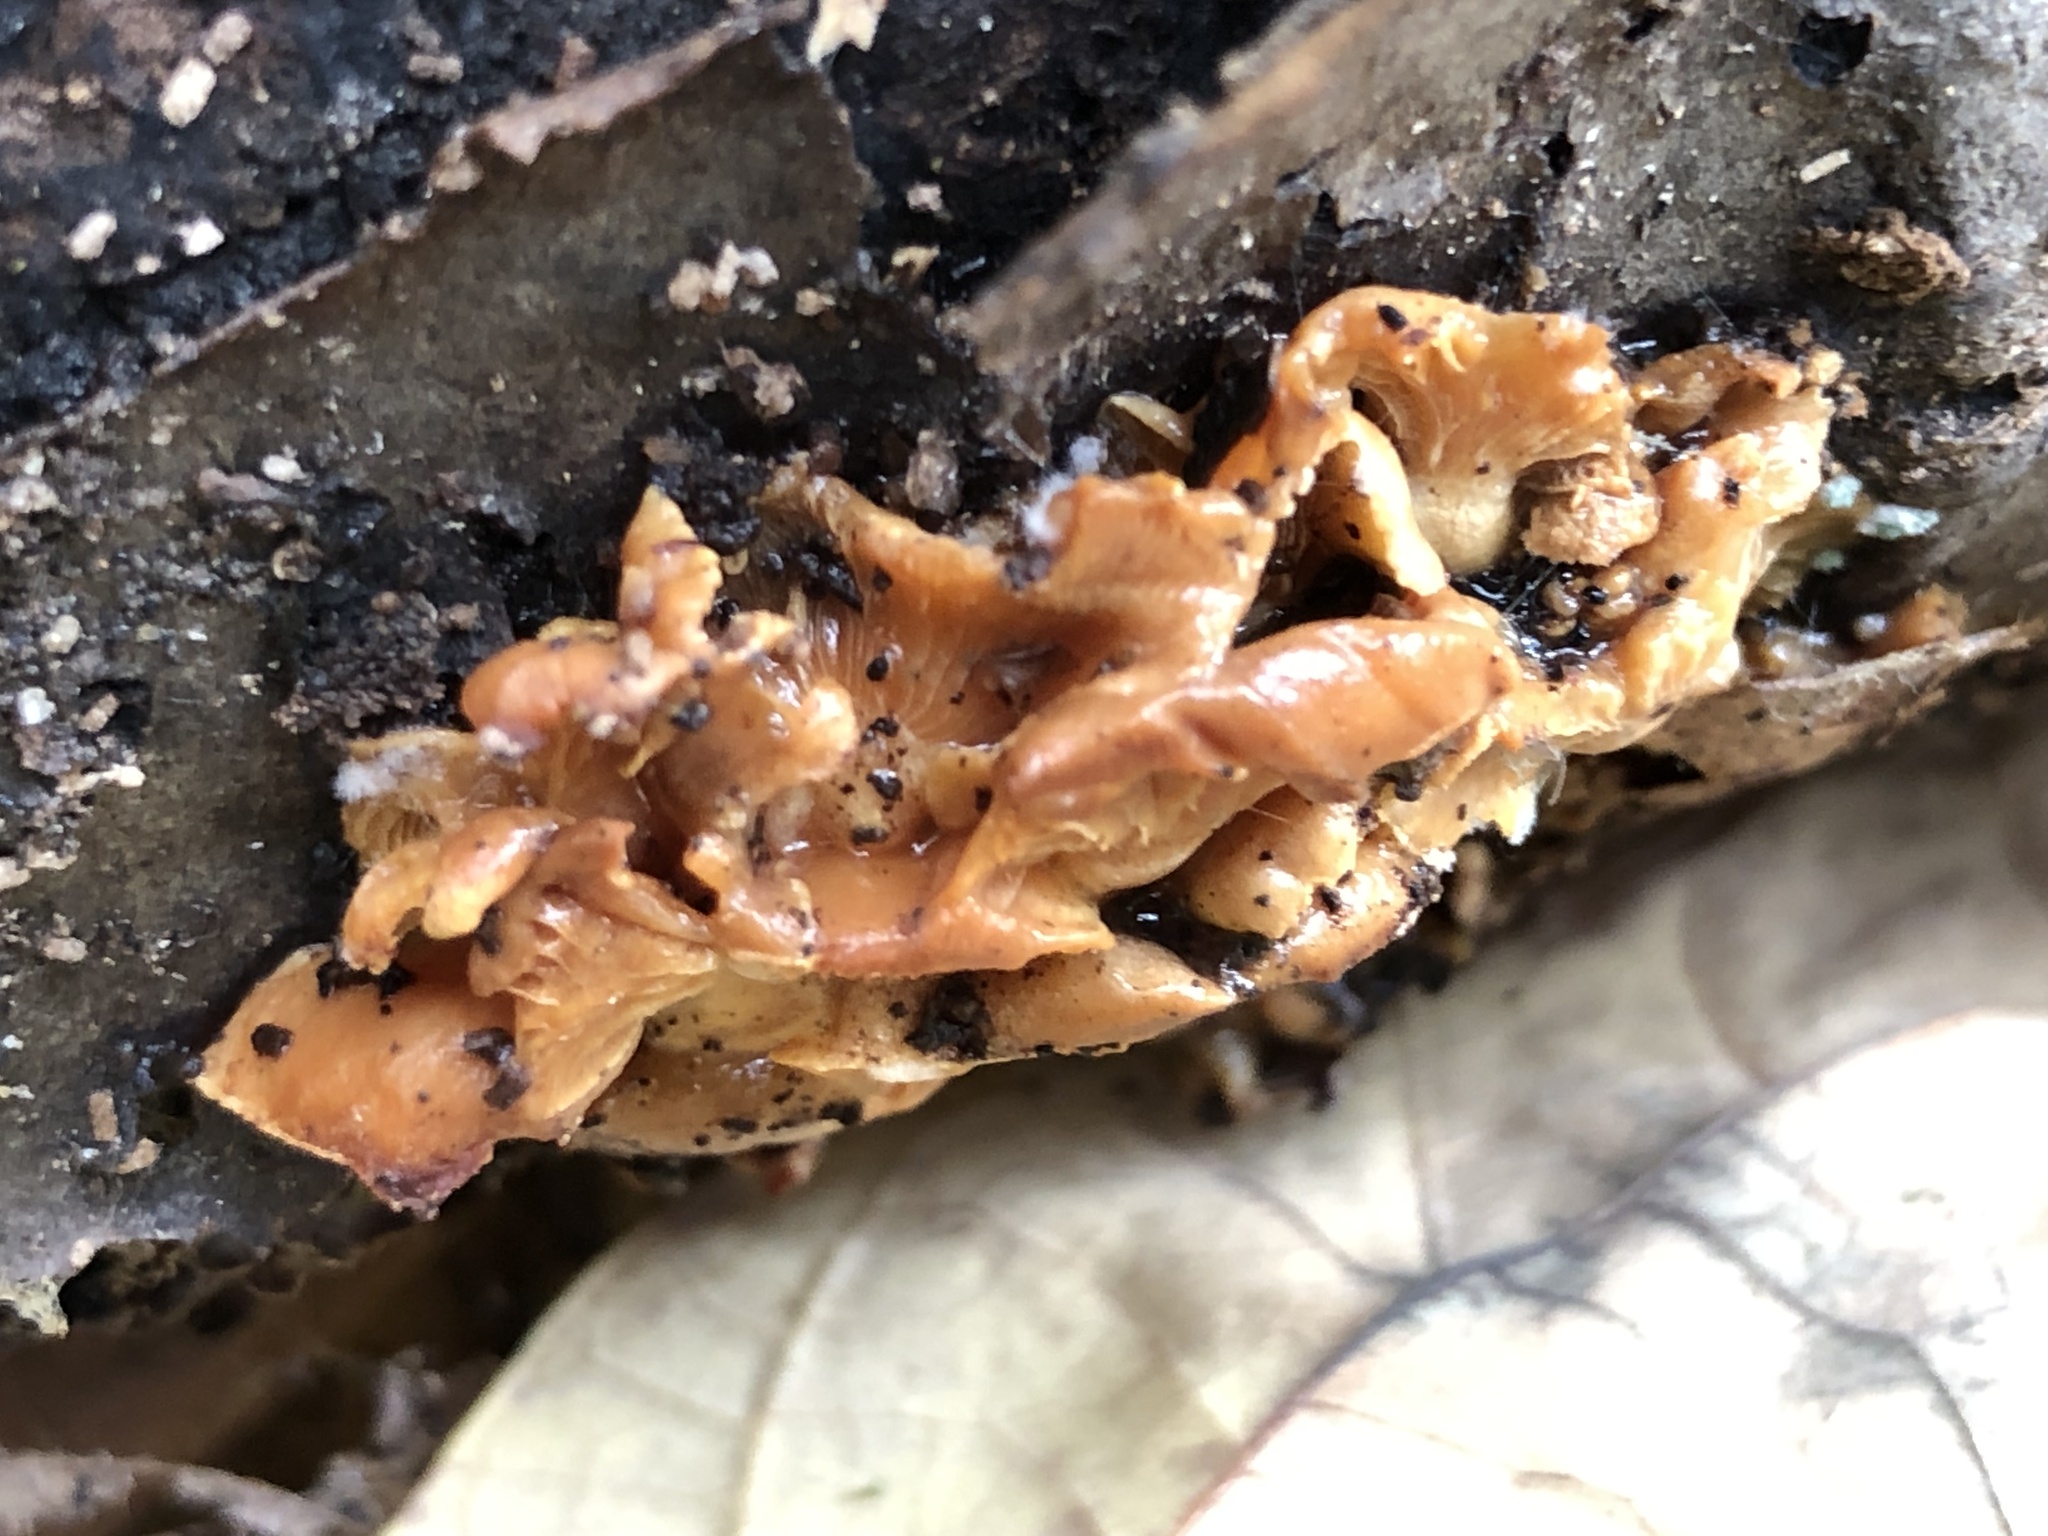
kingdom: Fungi
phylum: Basidiomycota
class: Agaricomycetes
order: Agaricales
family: Mycenaceae
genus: Panellus
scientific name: Panellus stipticus
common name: Bitter oysterling
